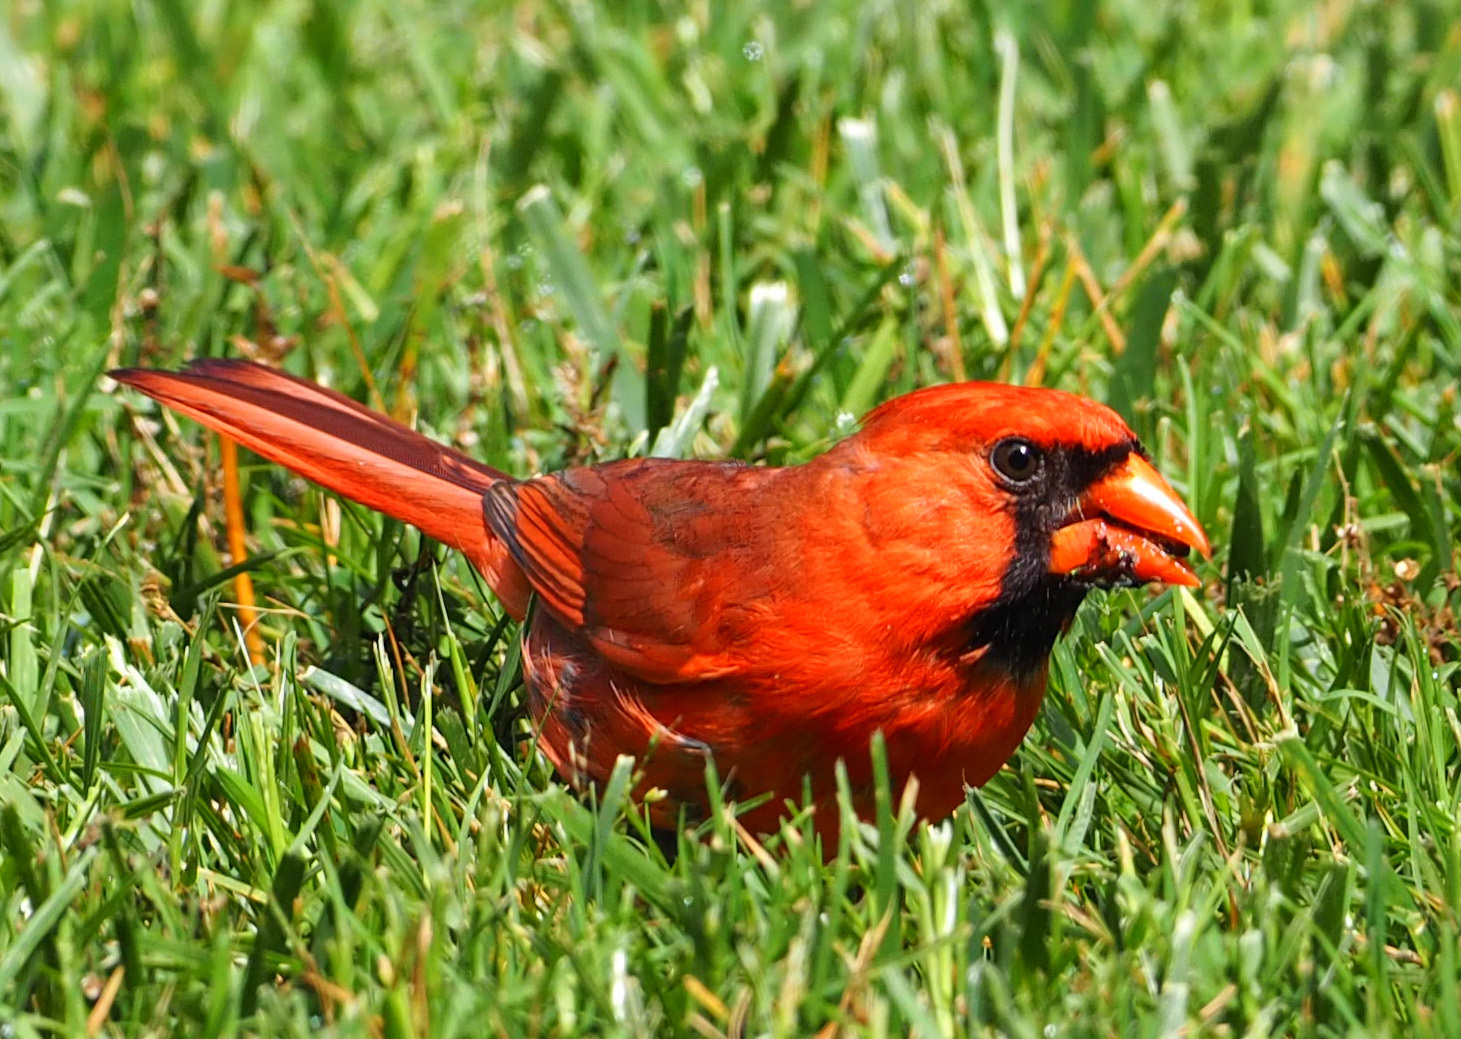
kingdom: Animalia
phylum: Chordata
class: Aves
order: Passeriformes
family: Cardinalidae
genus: Cardinalis
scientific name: Cardinalis cardinalis
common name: Northern cardinal
